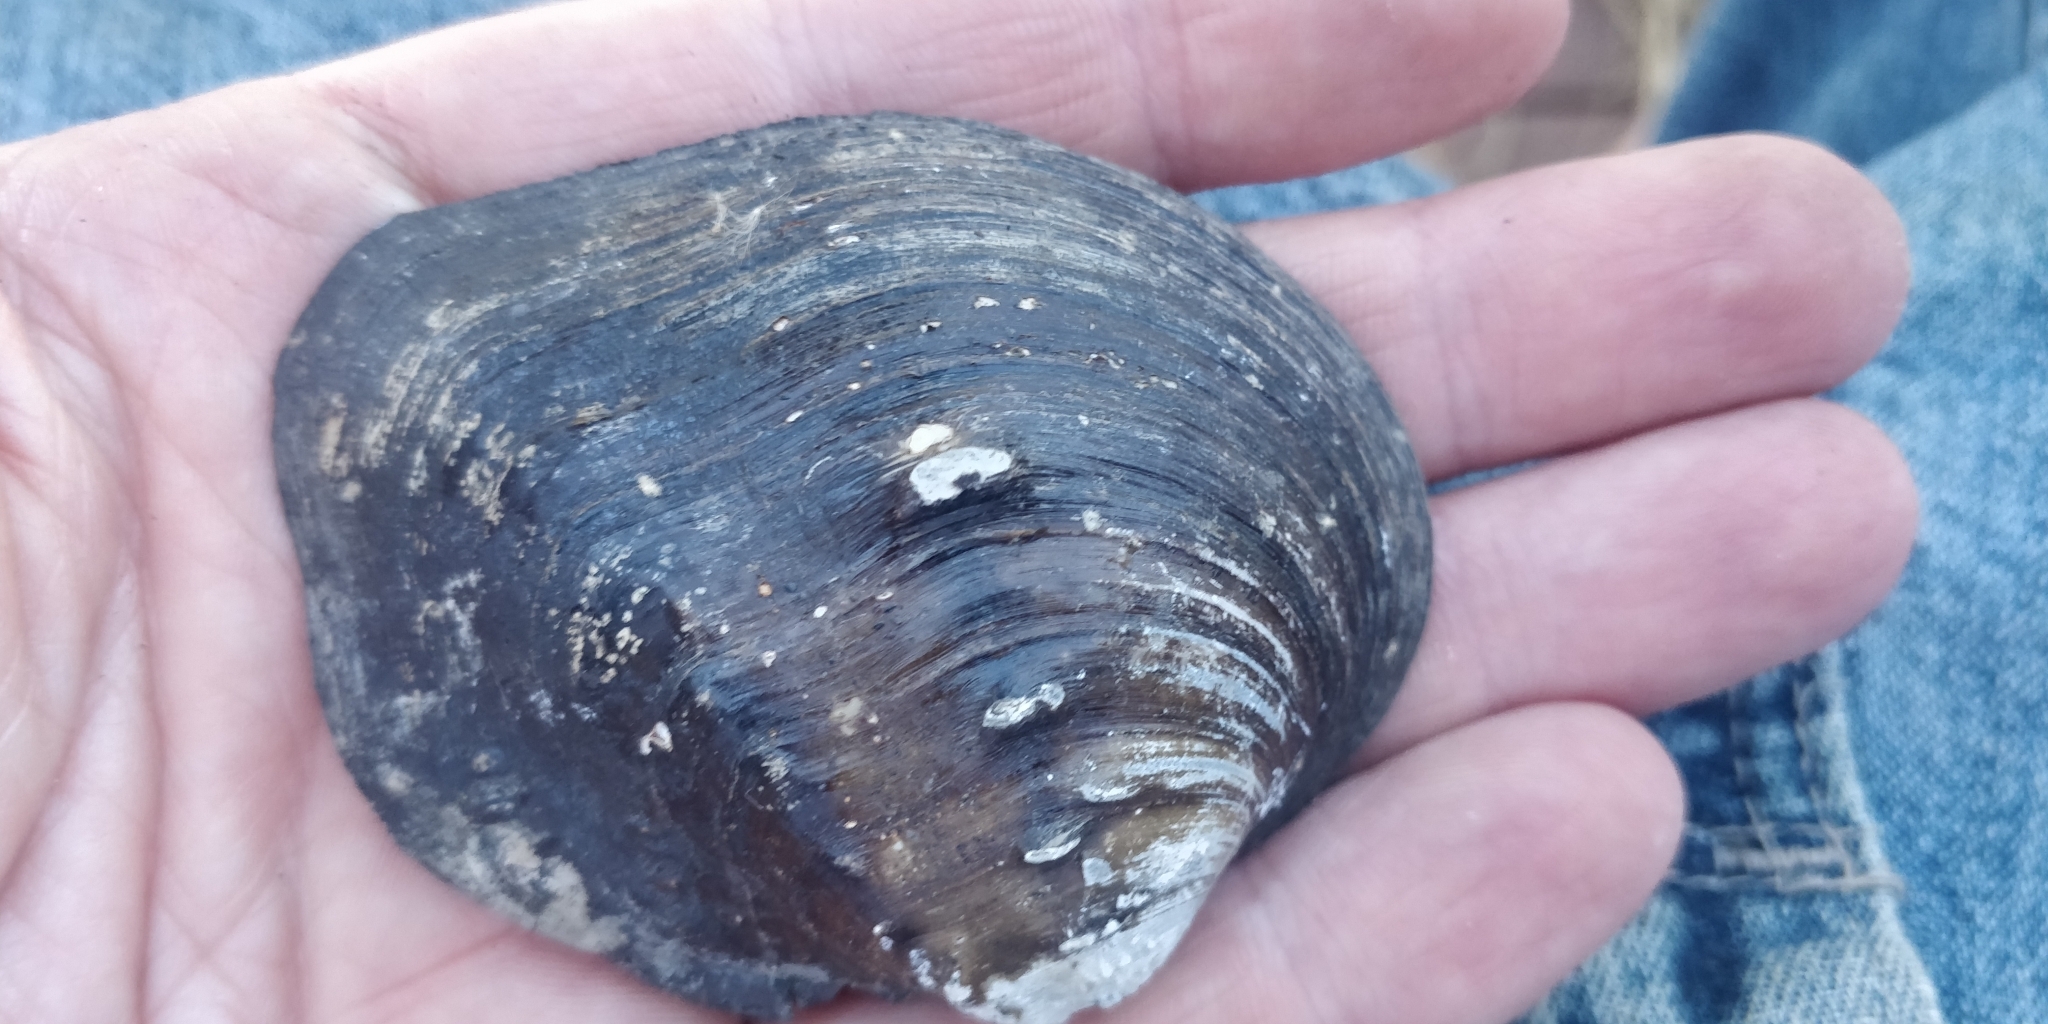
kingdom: Animalia
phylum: Mollusca
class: Bivalvia
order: Unionida
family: Unionidae
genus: Quadrula
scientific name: Quadrula quadrula
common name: Mapleleaf
